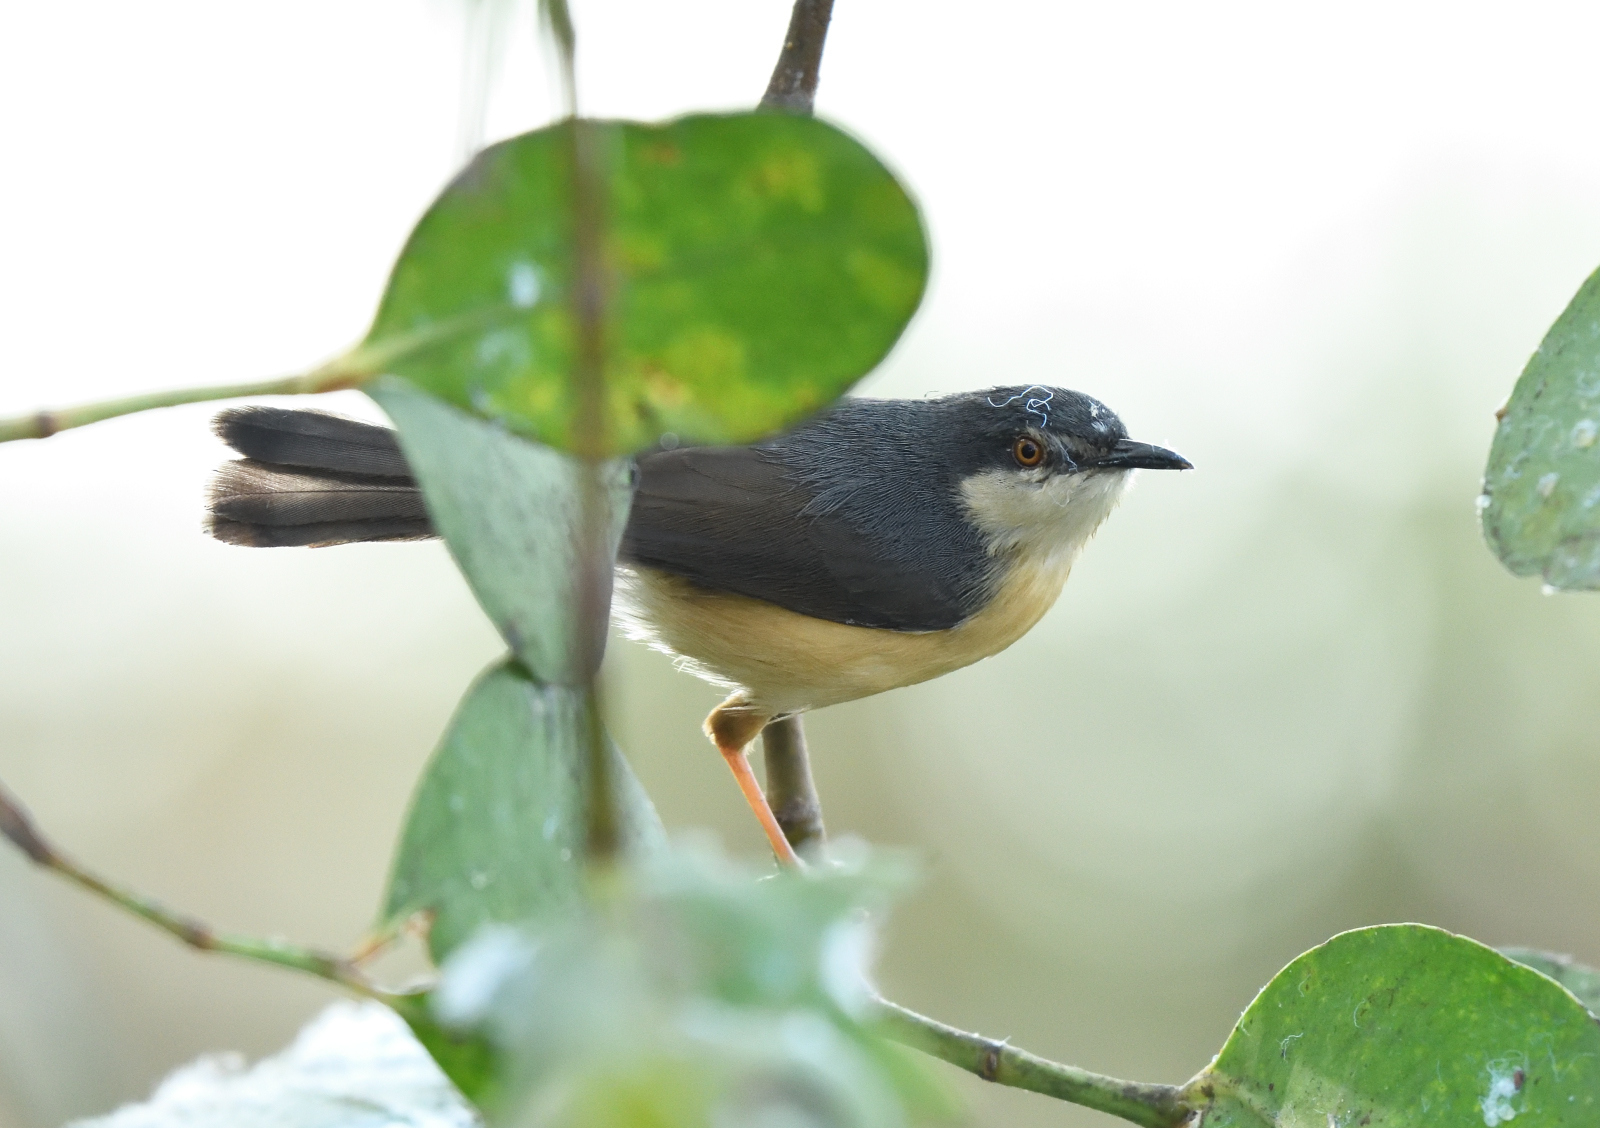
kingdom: Animalia
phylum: Chordata
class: Aves
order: Passeriformes
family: Cisticolidae
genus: Prinia
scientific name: Prinia socialis
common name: Ashy prinia
